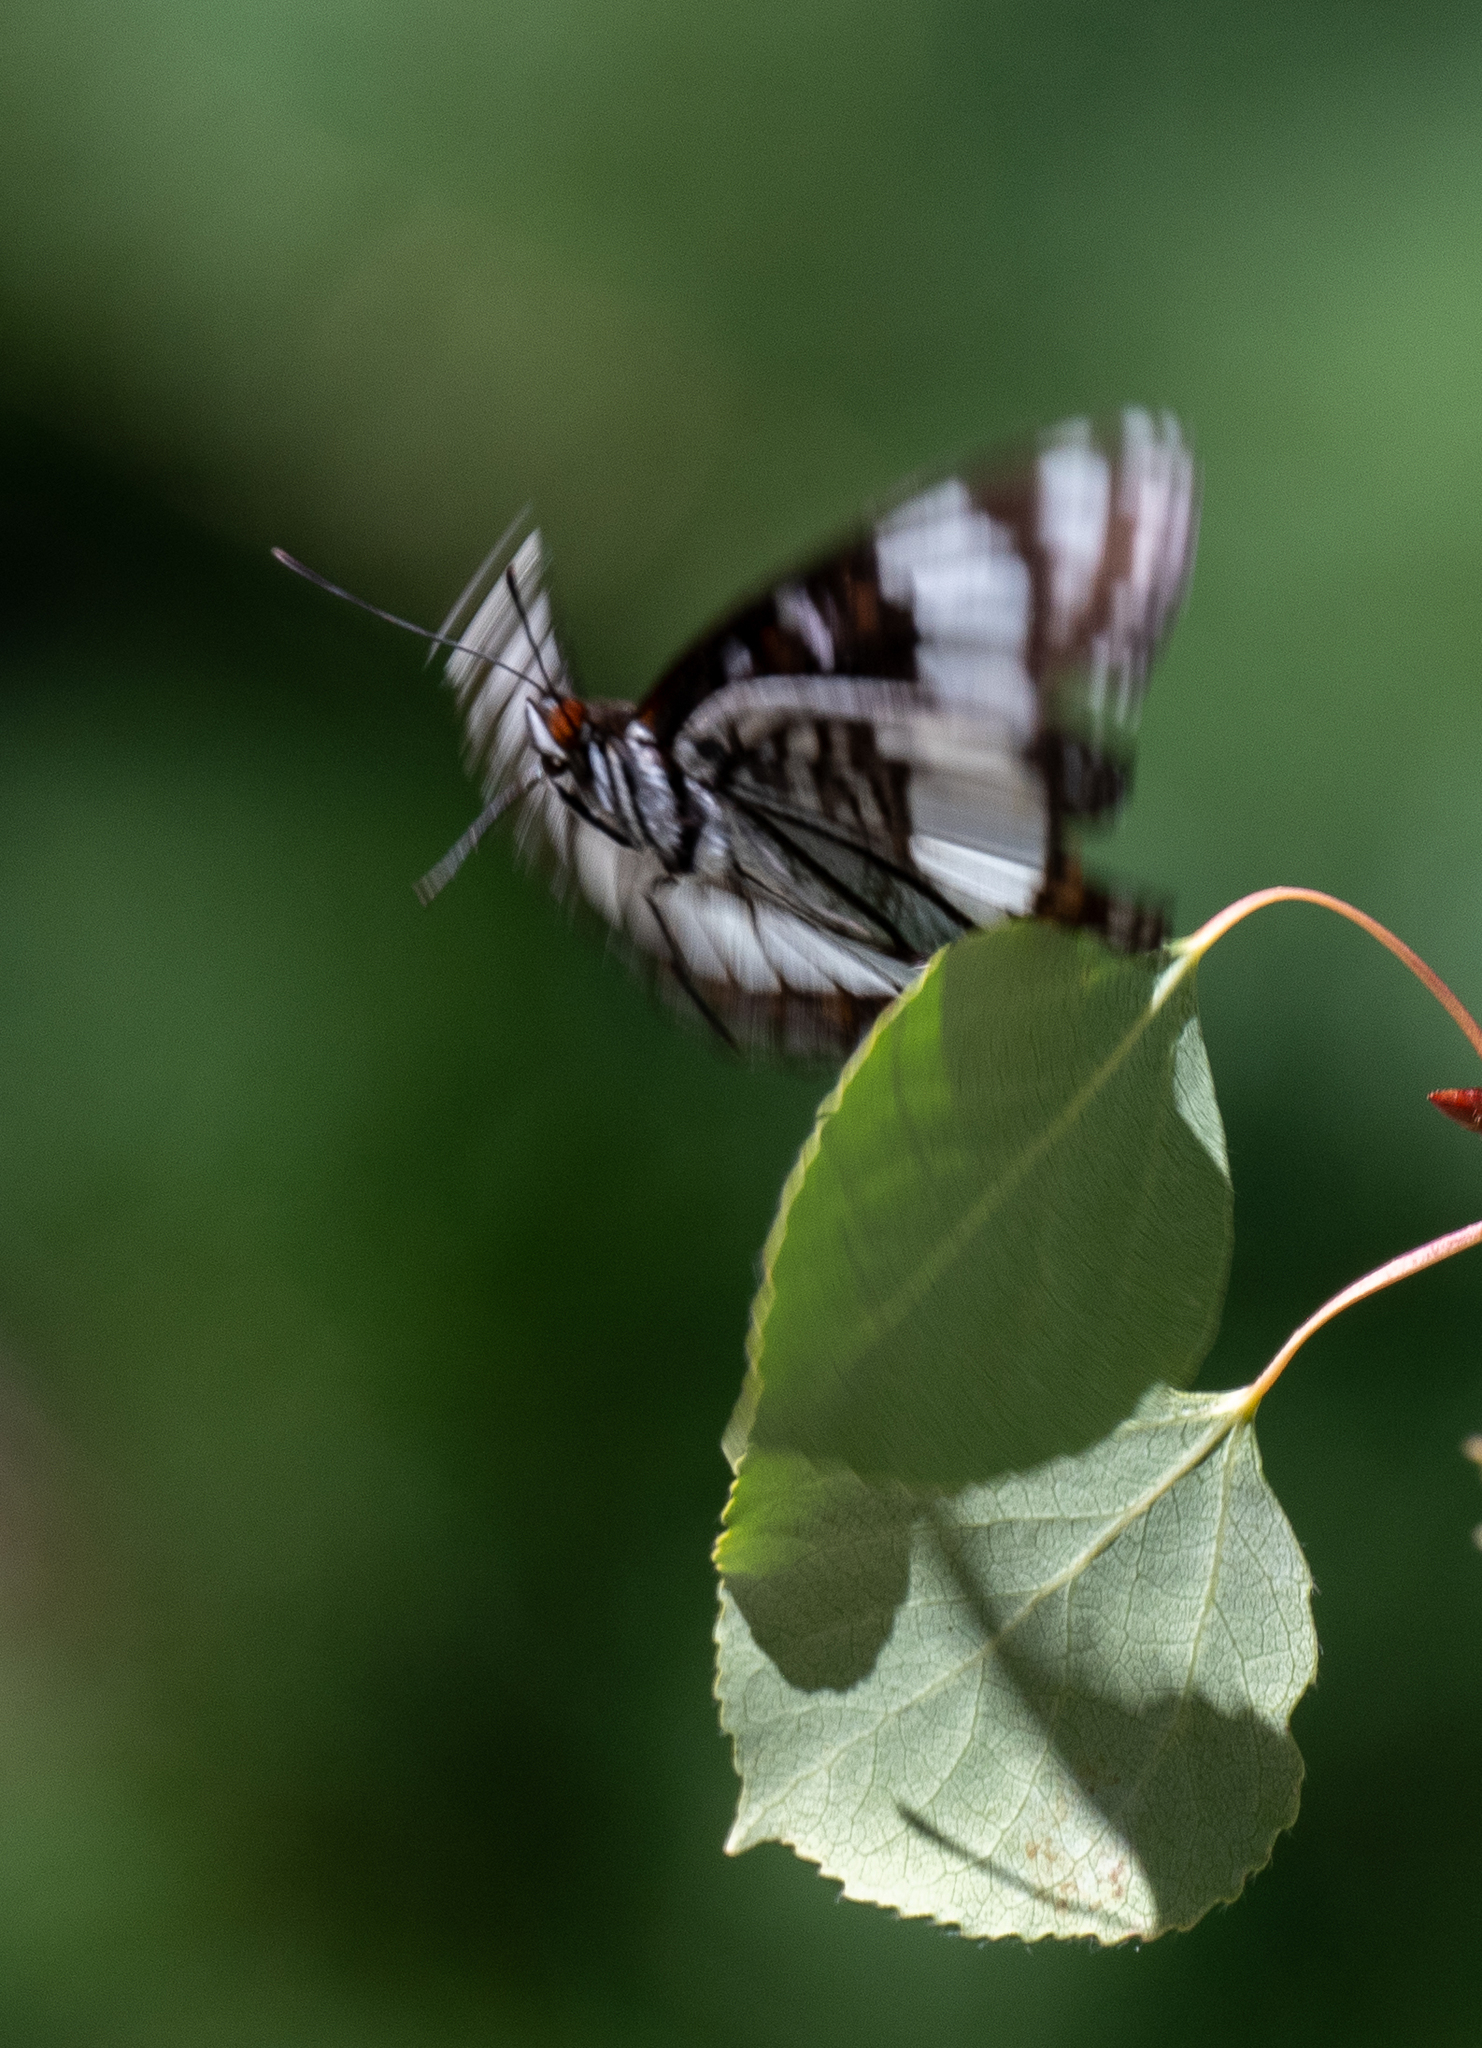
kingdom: Animalia
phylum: Arthropoda
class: Insecta
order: Lepidoptera
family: Nymphalidae
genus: Limenitis
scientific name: Limenitis weidemeyerii
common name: Weidemeyer's admiral
